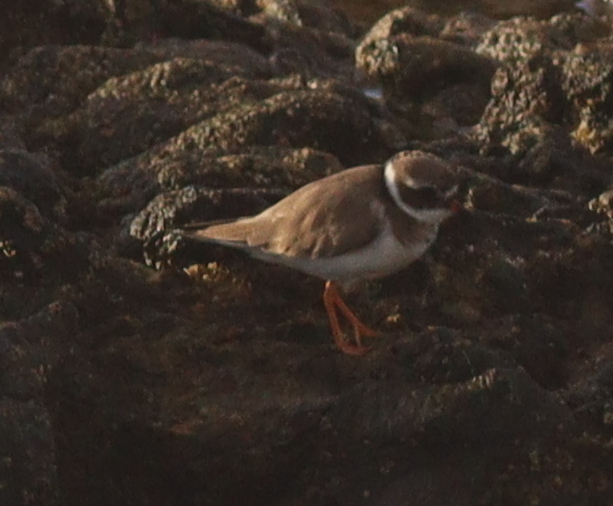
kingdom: Animalia
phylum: Chordata
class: Aves
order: Charadriiformes
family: Charadriidae
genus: Charadrius
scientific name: Charadrius hiaticula
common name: Common ringed plover
